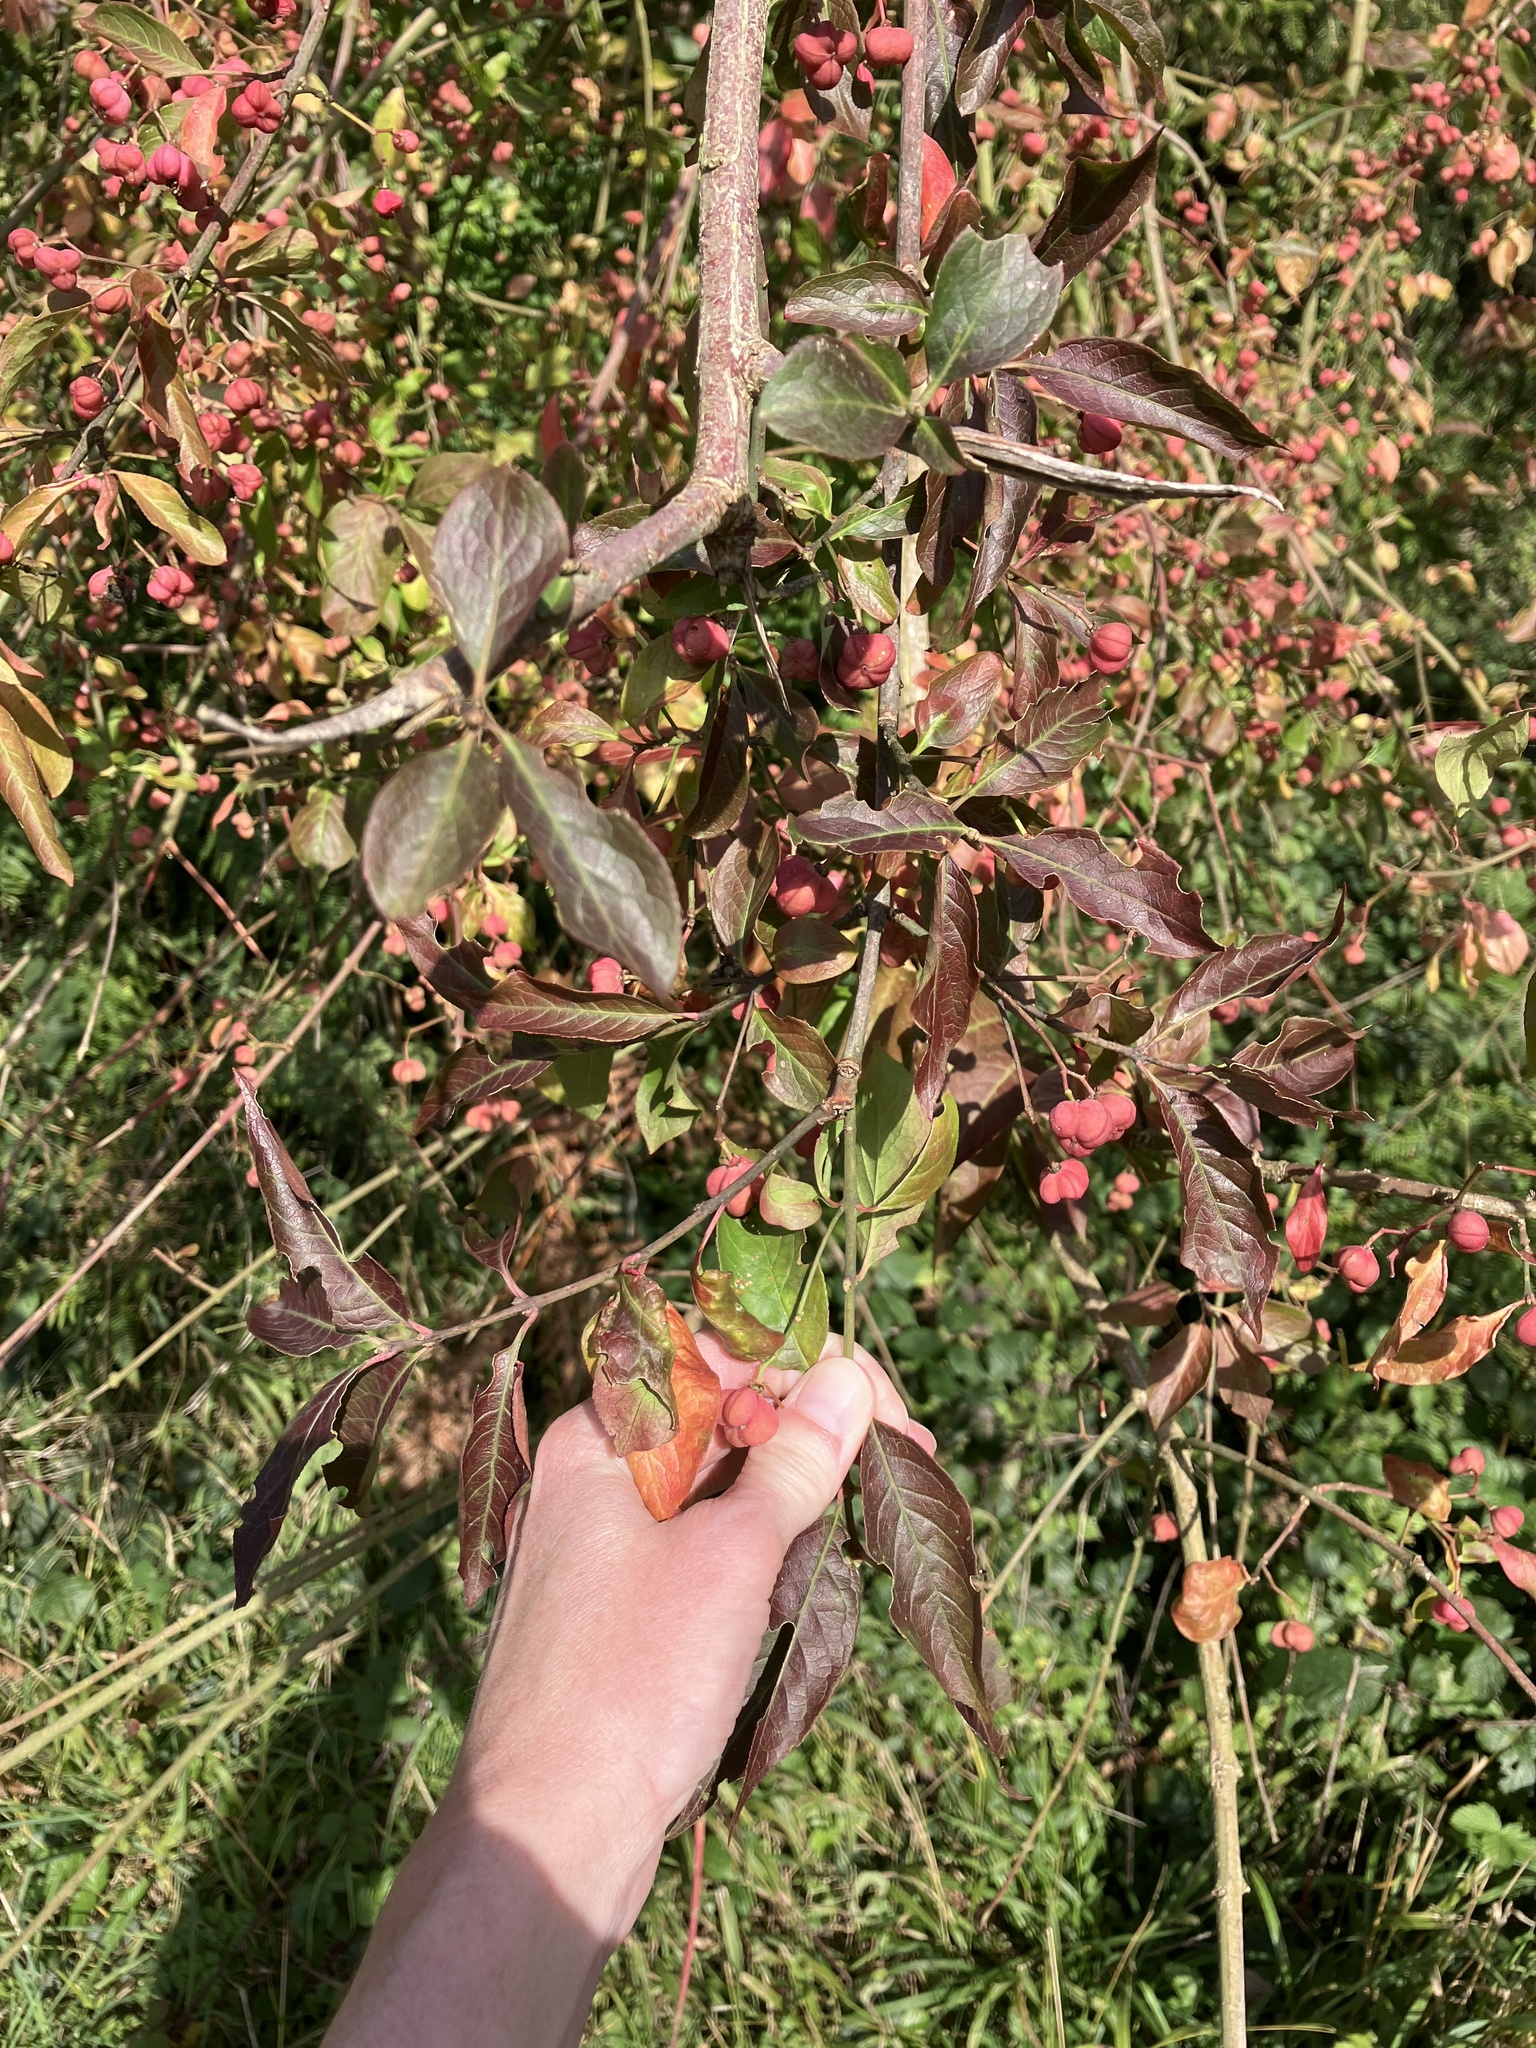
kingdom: Plantae
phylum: Tracheophyta
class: Magnoliopsida
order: Celastrales
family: Celastraceae
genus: Euonymus
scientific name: Euonymus europaeus
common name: Spindle
